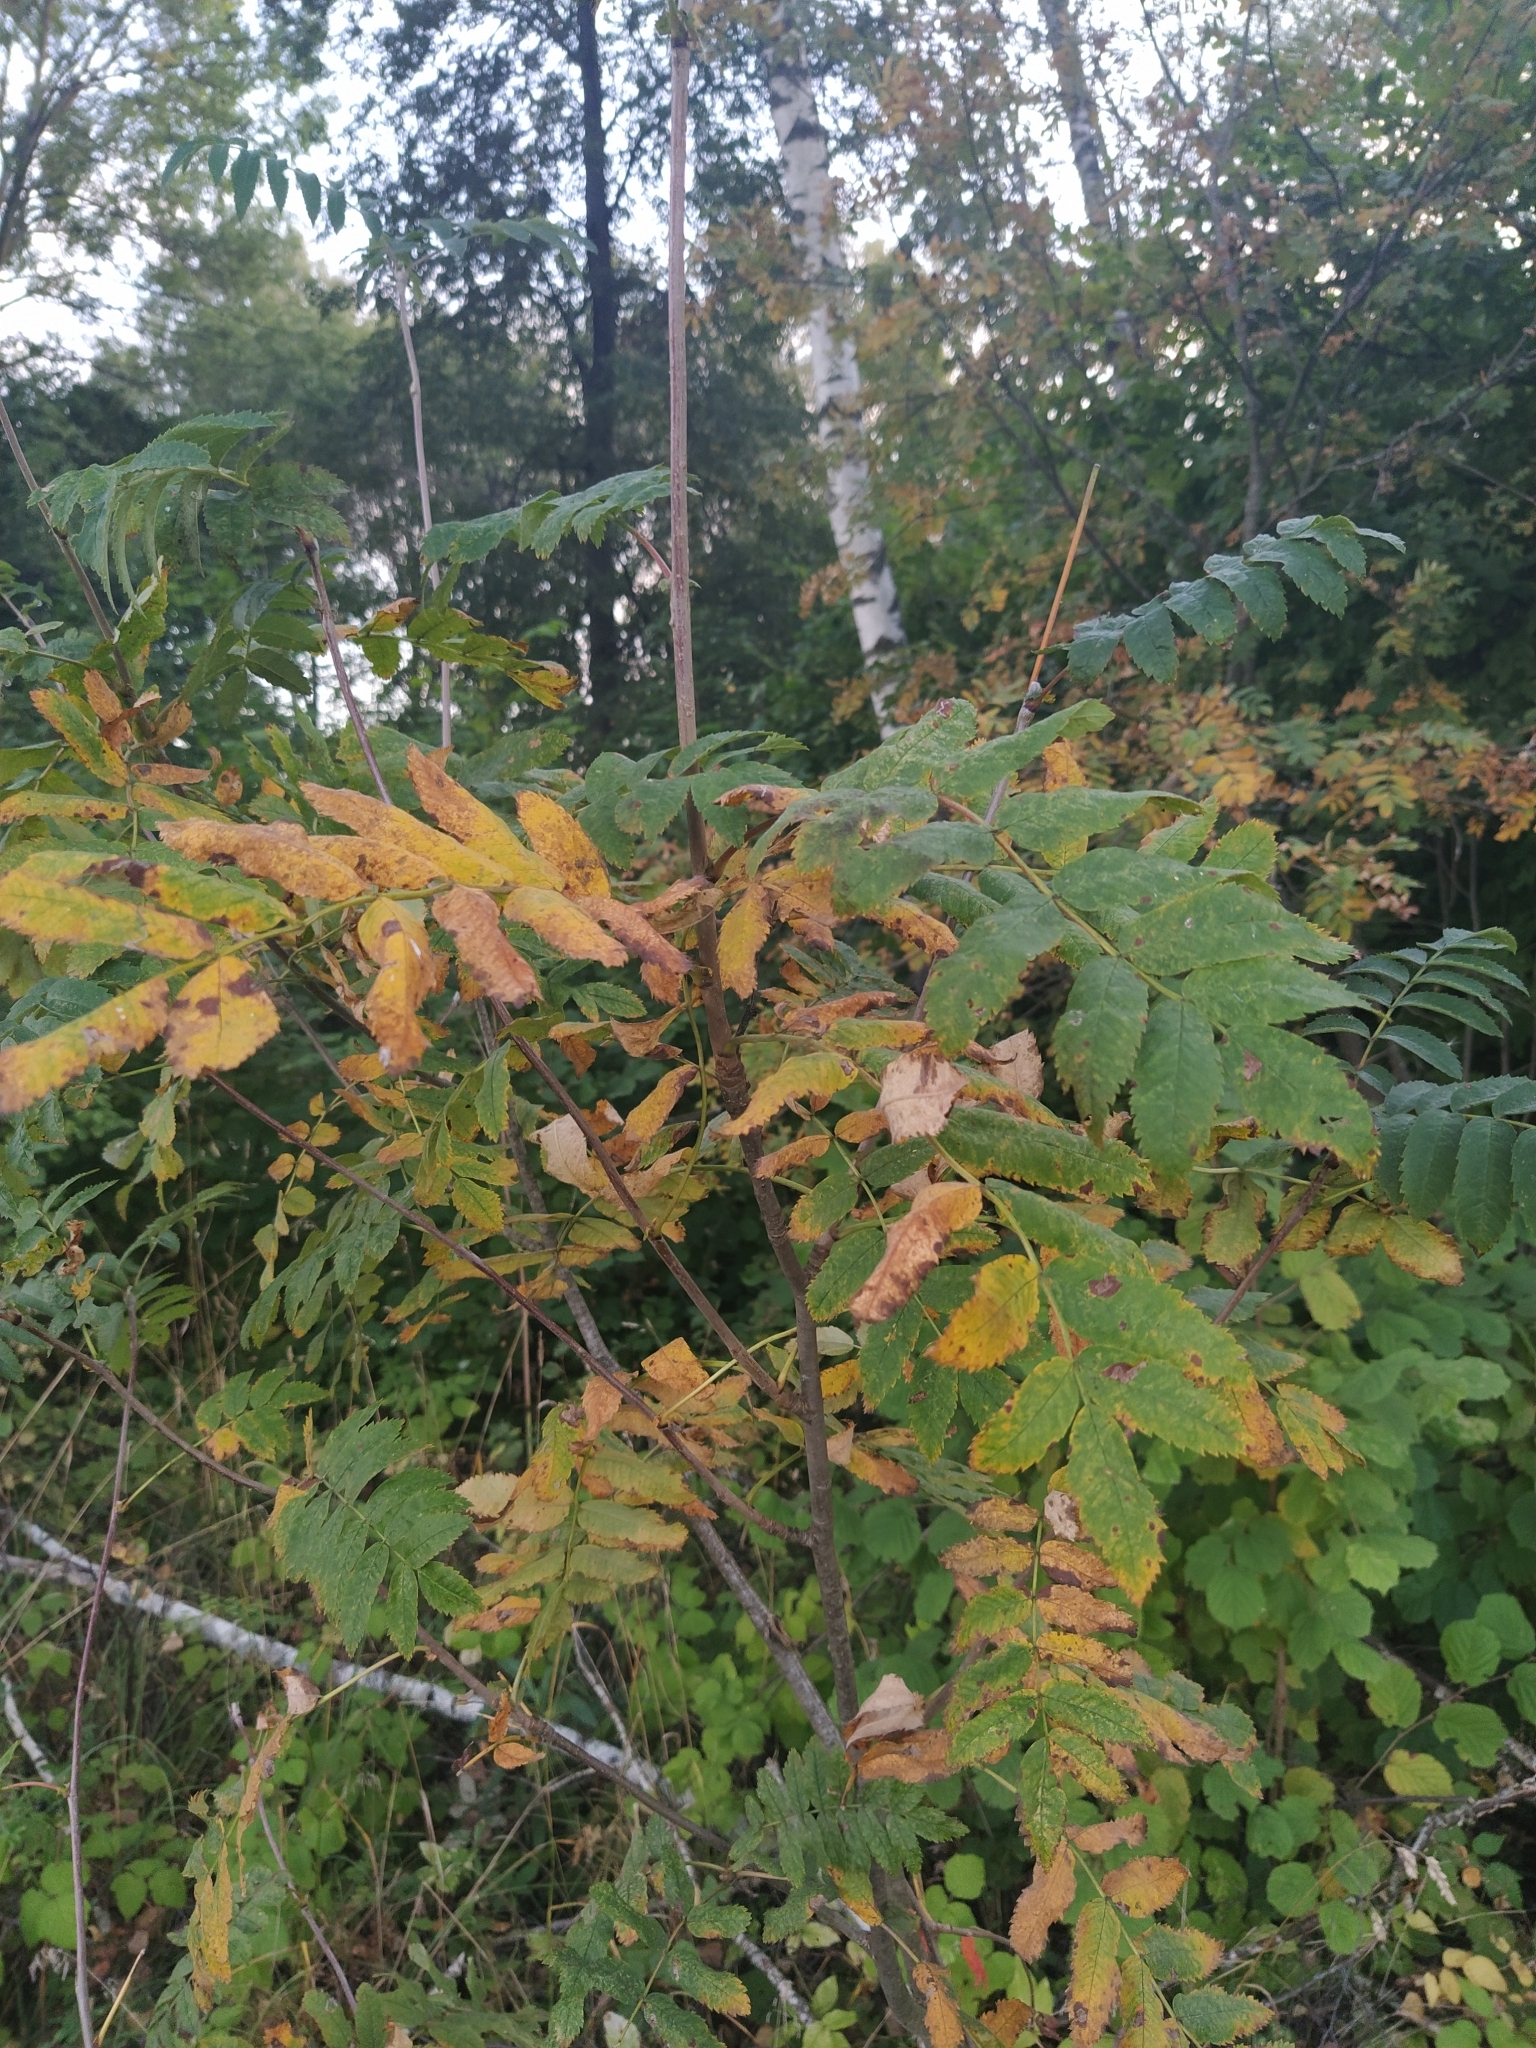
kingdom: Plantae
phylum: Tracheophyta
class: Magnoliopsida
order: Rosales
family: Rosaceae
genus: Sorbus
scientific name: Sorbus aucuparia
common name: Rowan
